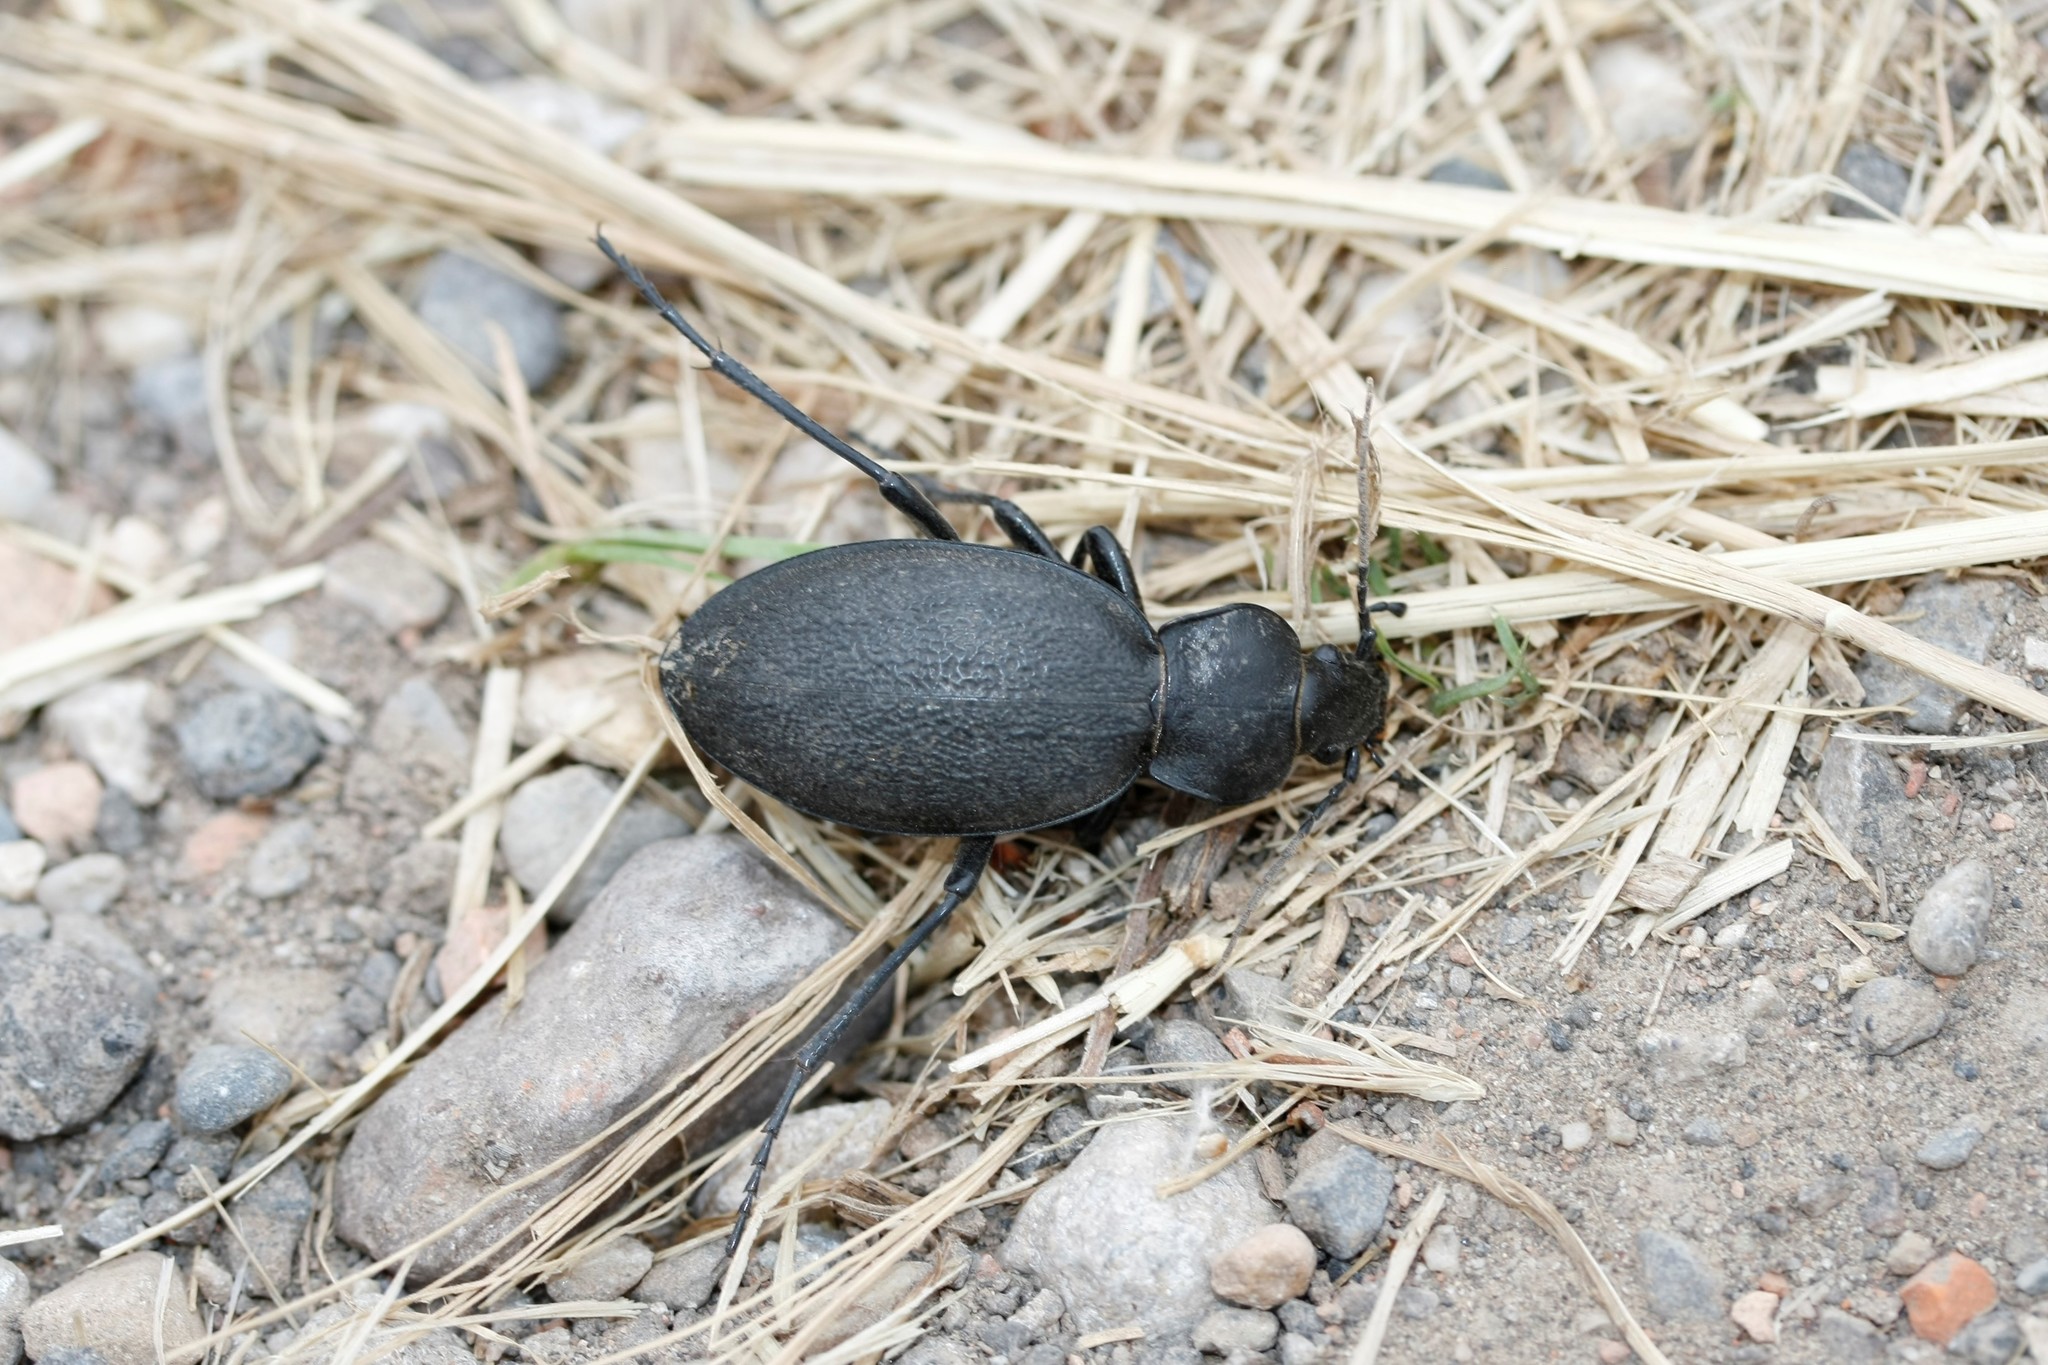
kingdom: Animalia
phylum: Arthropoda
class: Insecta
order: Coleoptera
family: Carabidae
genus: Carabus
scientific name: Carabus coriaceus
